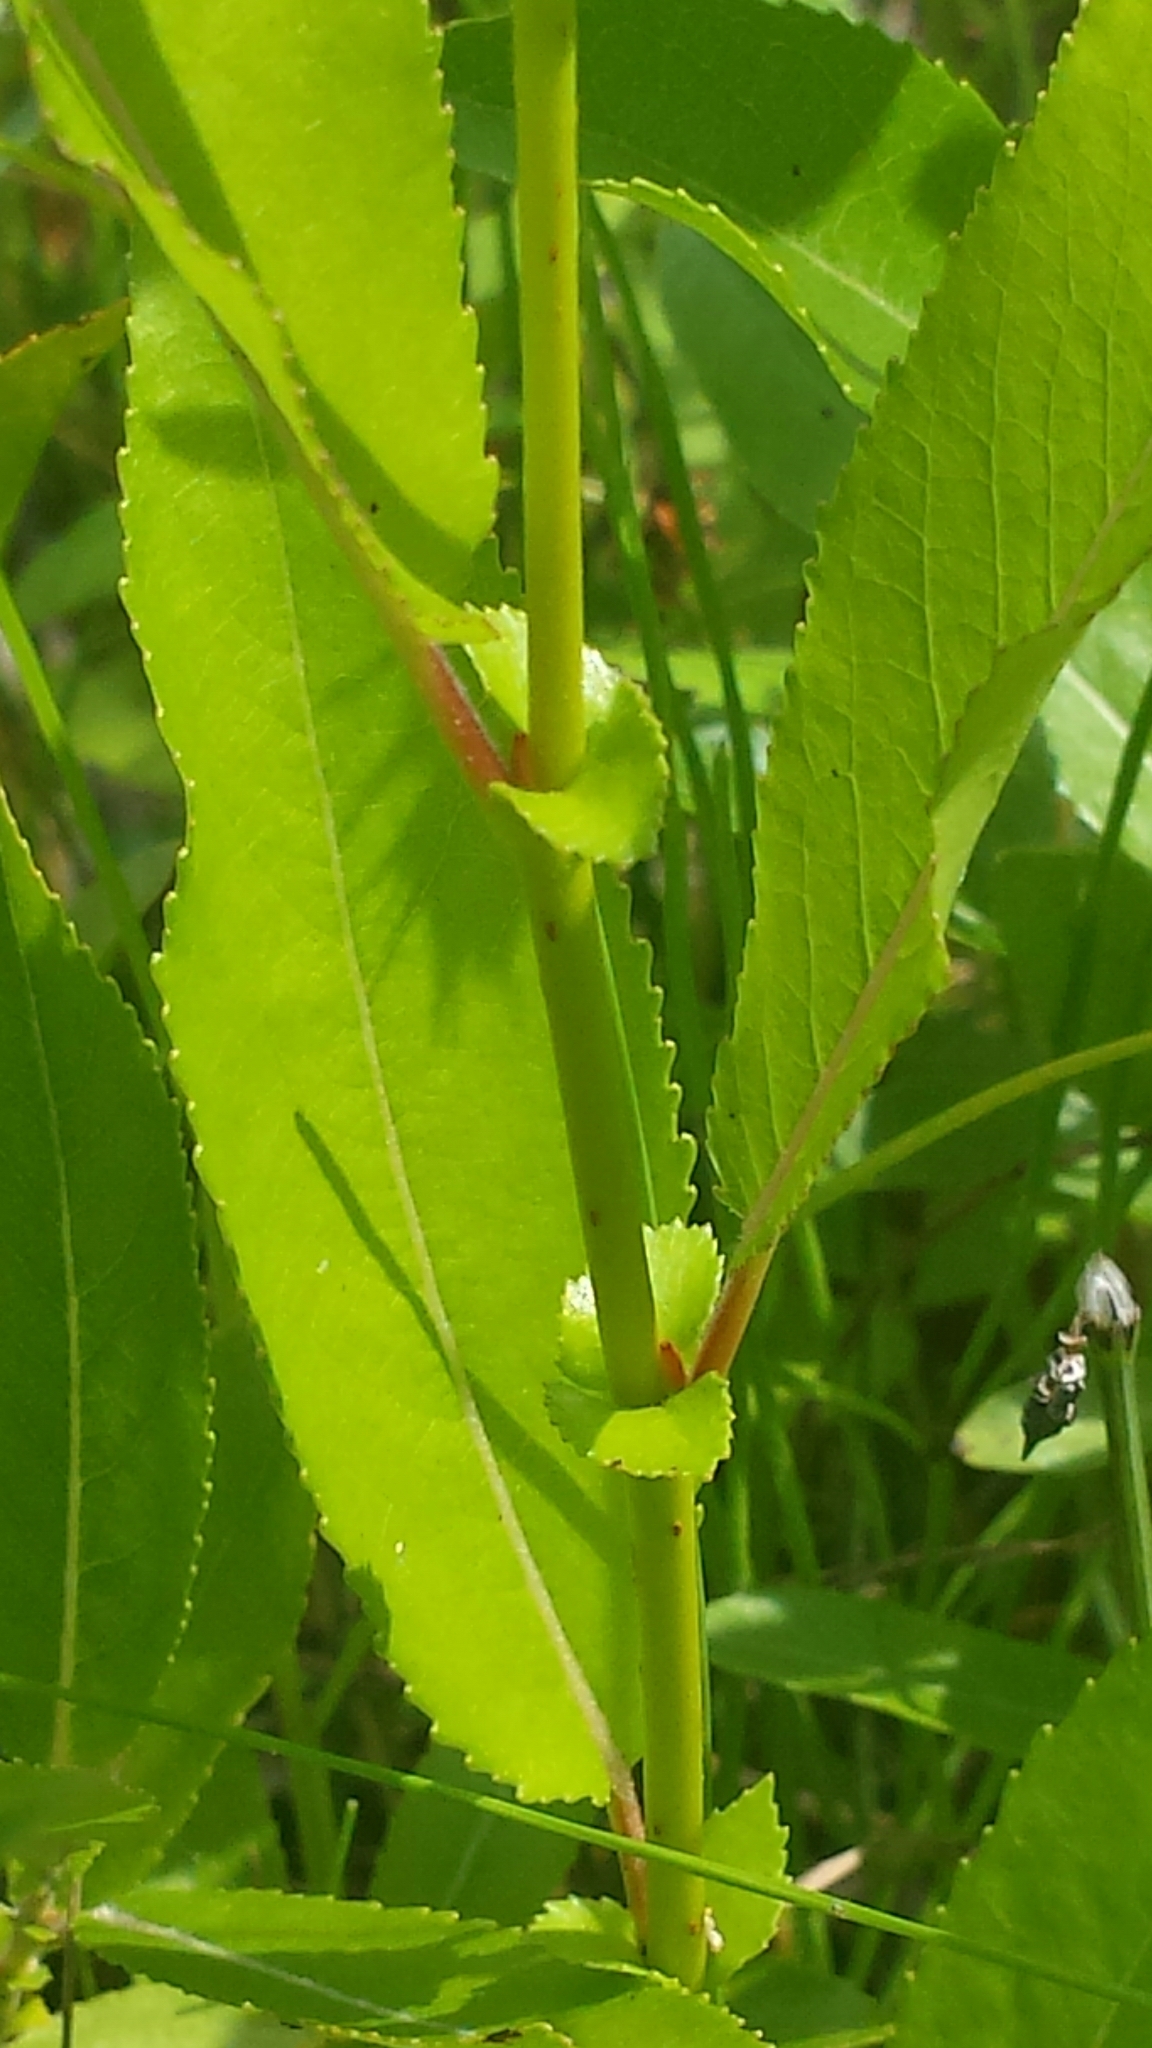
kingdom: Plantae
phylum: Tracheophyta
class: Magnoliopsida
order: Malpighiales
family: Salicaceae
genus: Salix
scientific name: Salix eriocephala
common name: Heart-leaved willow
